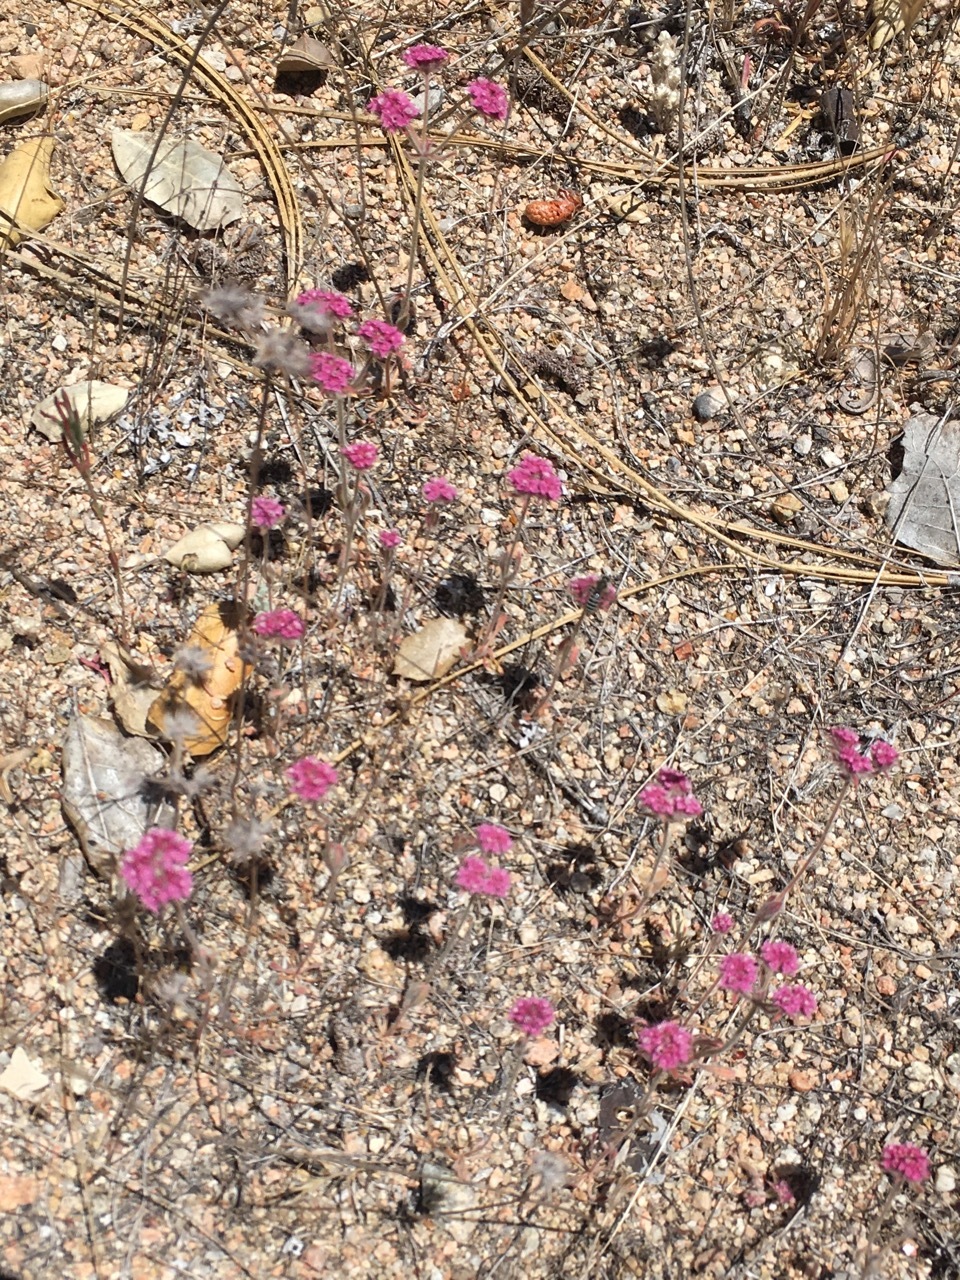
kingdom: Plantae
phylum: Tracheophyta
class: Magnoliopsida
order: Caryophyllales
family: Polygonaceae
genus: Chorizanthe
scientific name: Chorizanthe douglasii
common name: Douglas's spineflower
